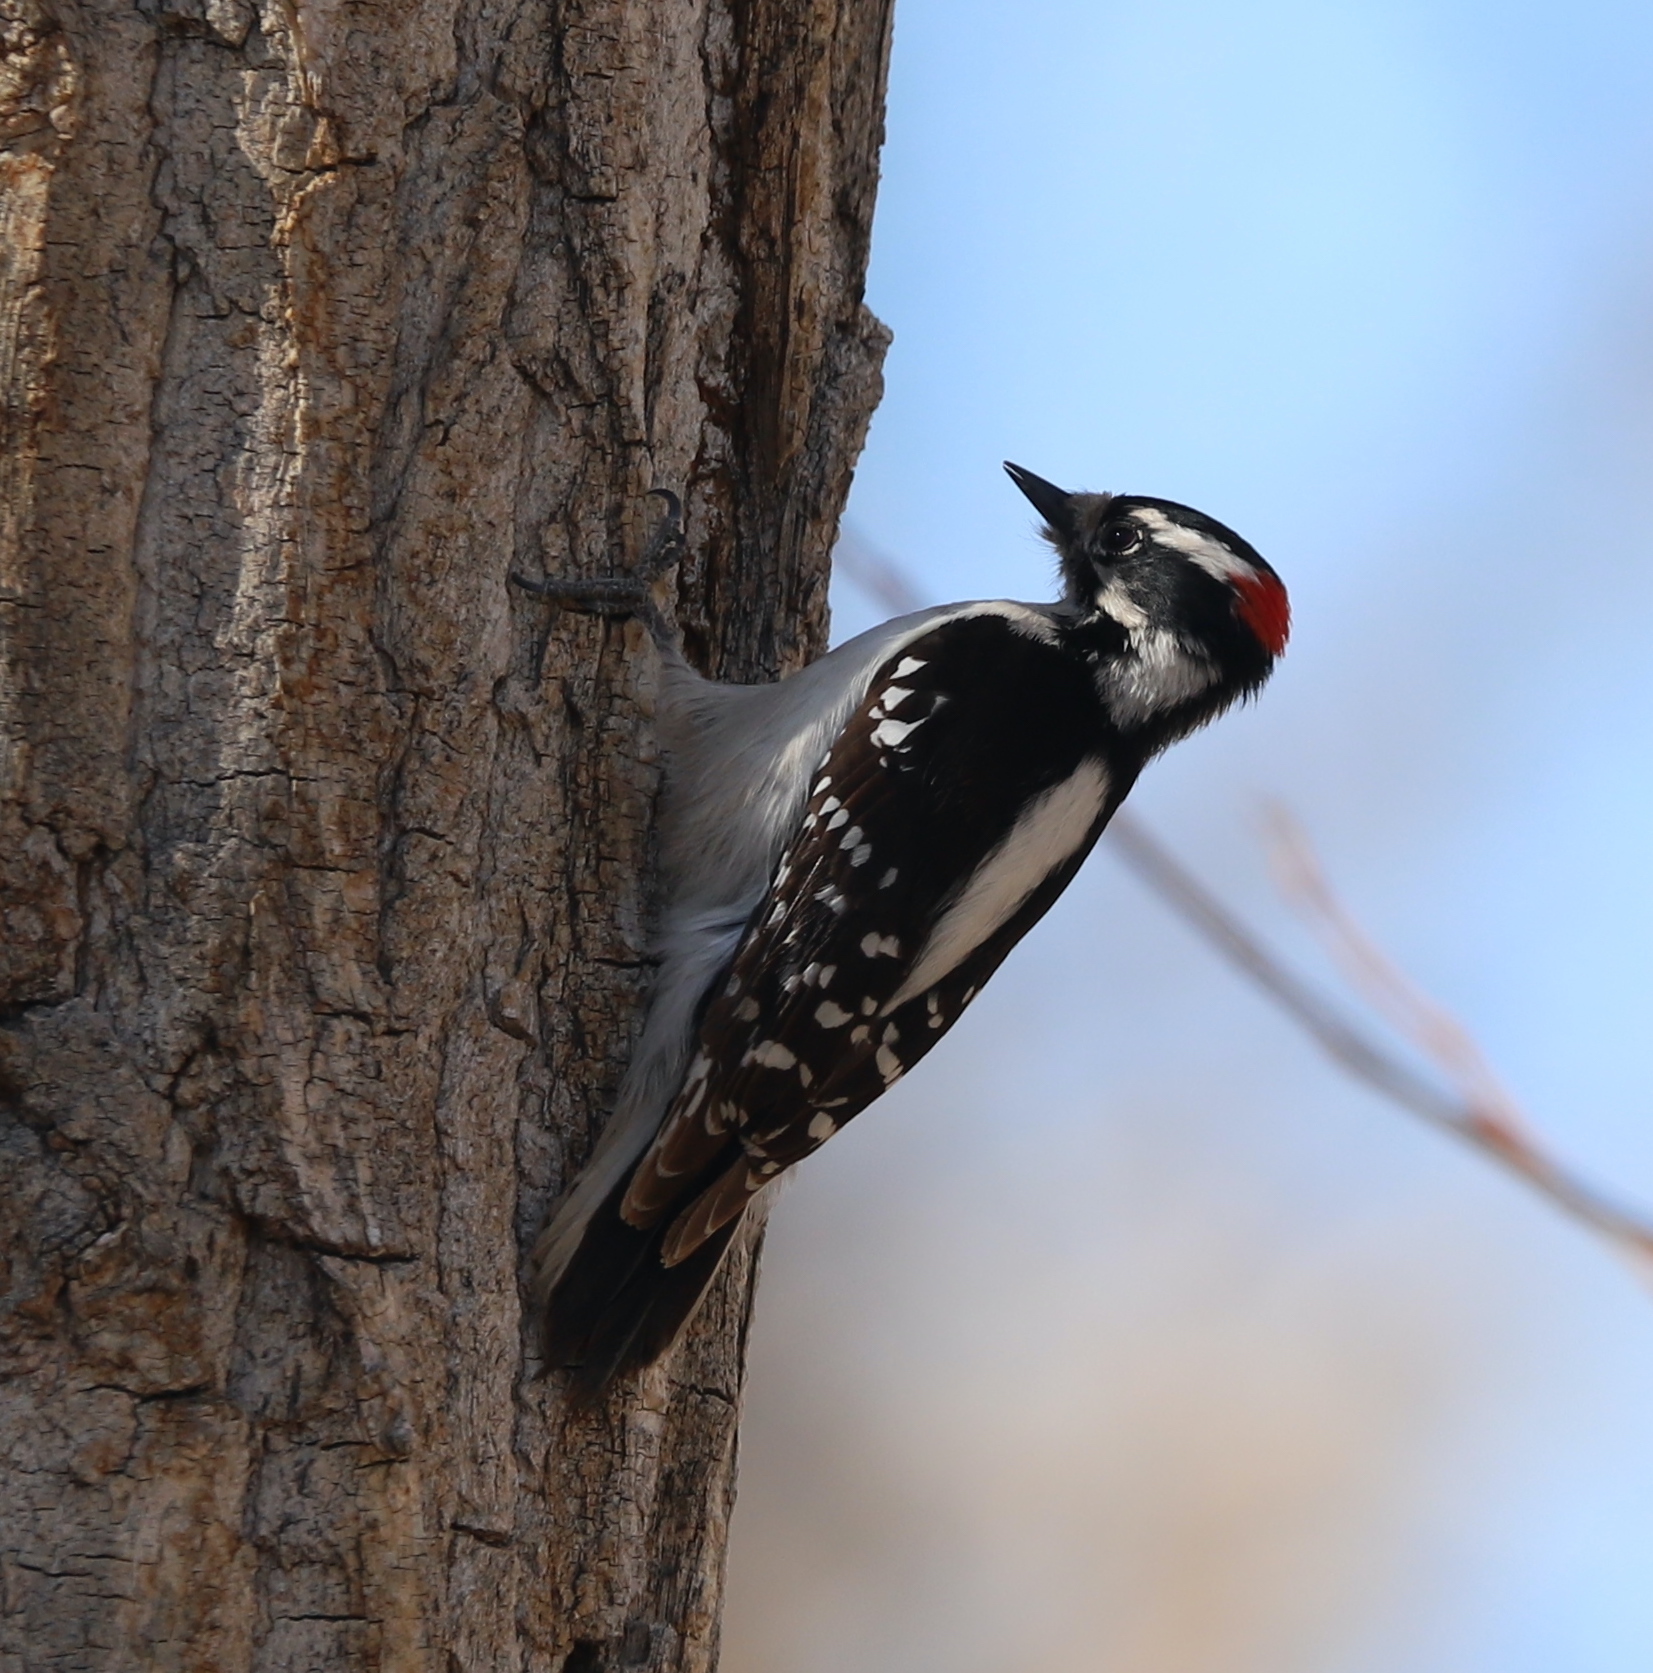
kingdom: Animalia
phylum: Chordata
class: Aves
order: Piciformes
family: Picidae
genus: Dryobates
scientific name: Dryobates pubescens
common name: Downy woodpecker
